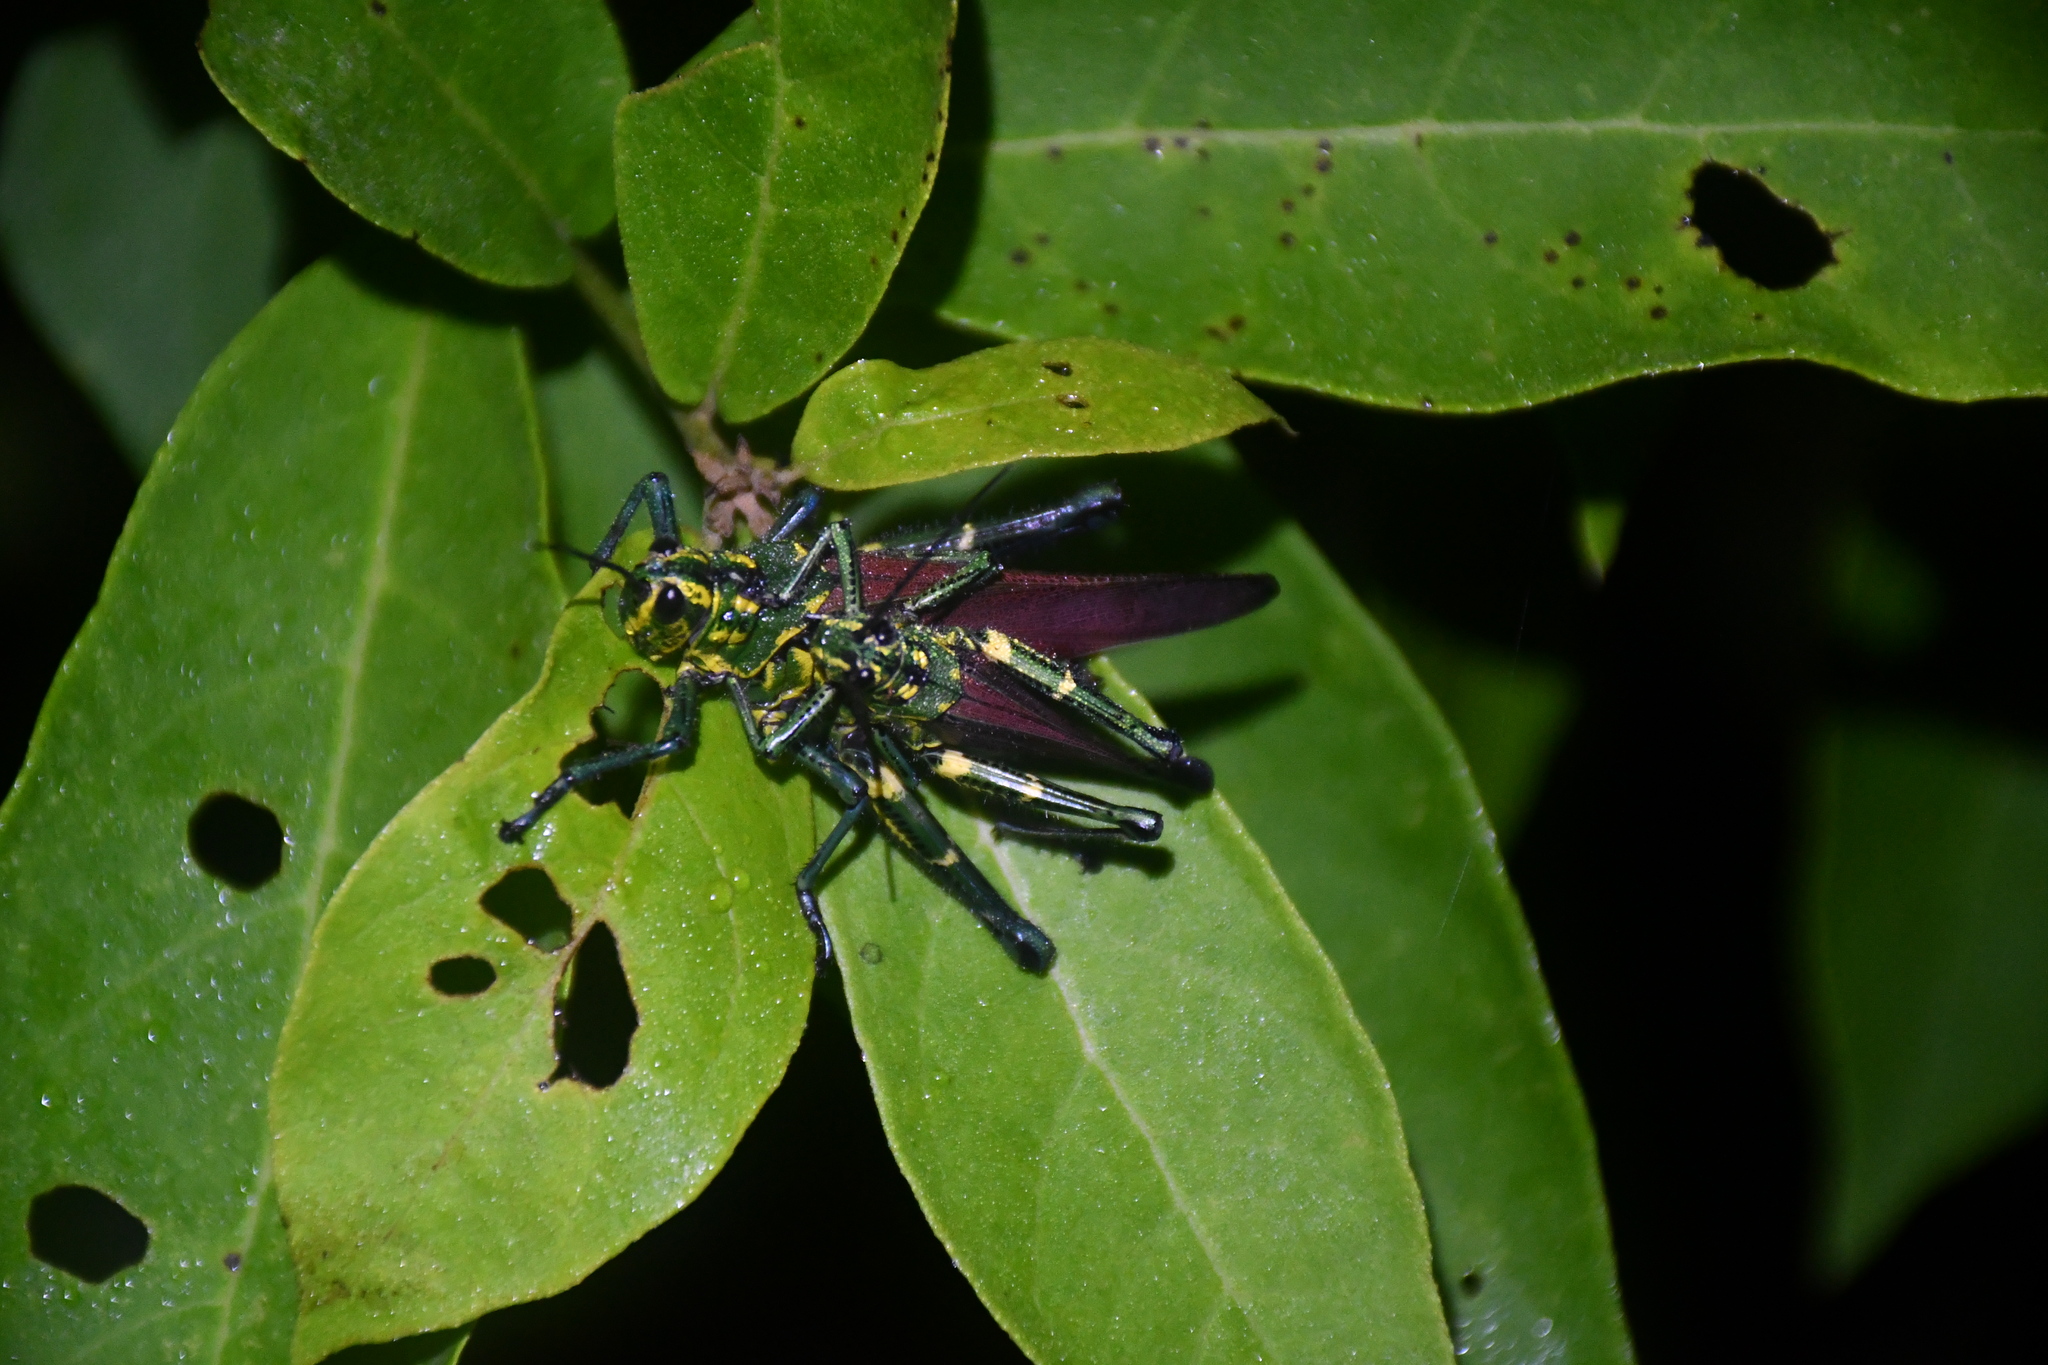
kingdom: Animalia
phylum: Arthropoda
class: Insecta
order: Orthoptera
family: Romaleidae
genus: Chromacris
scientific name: Chromacris speciosa
